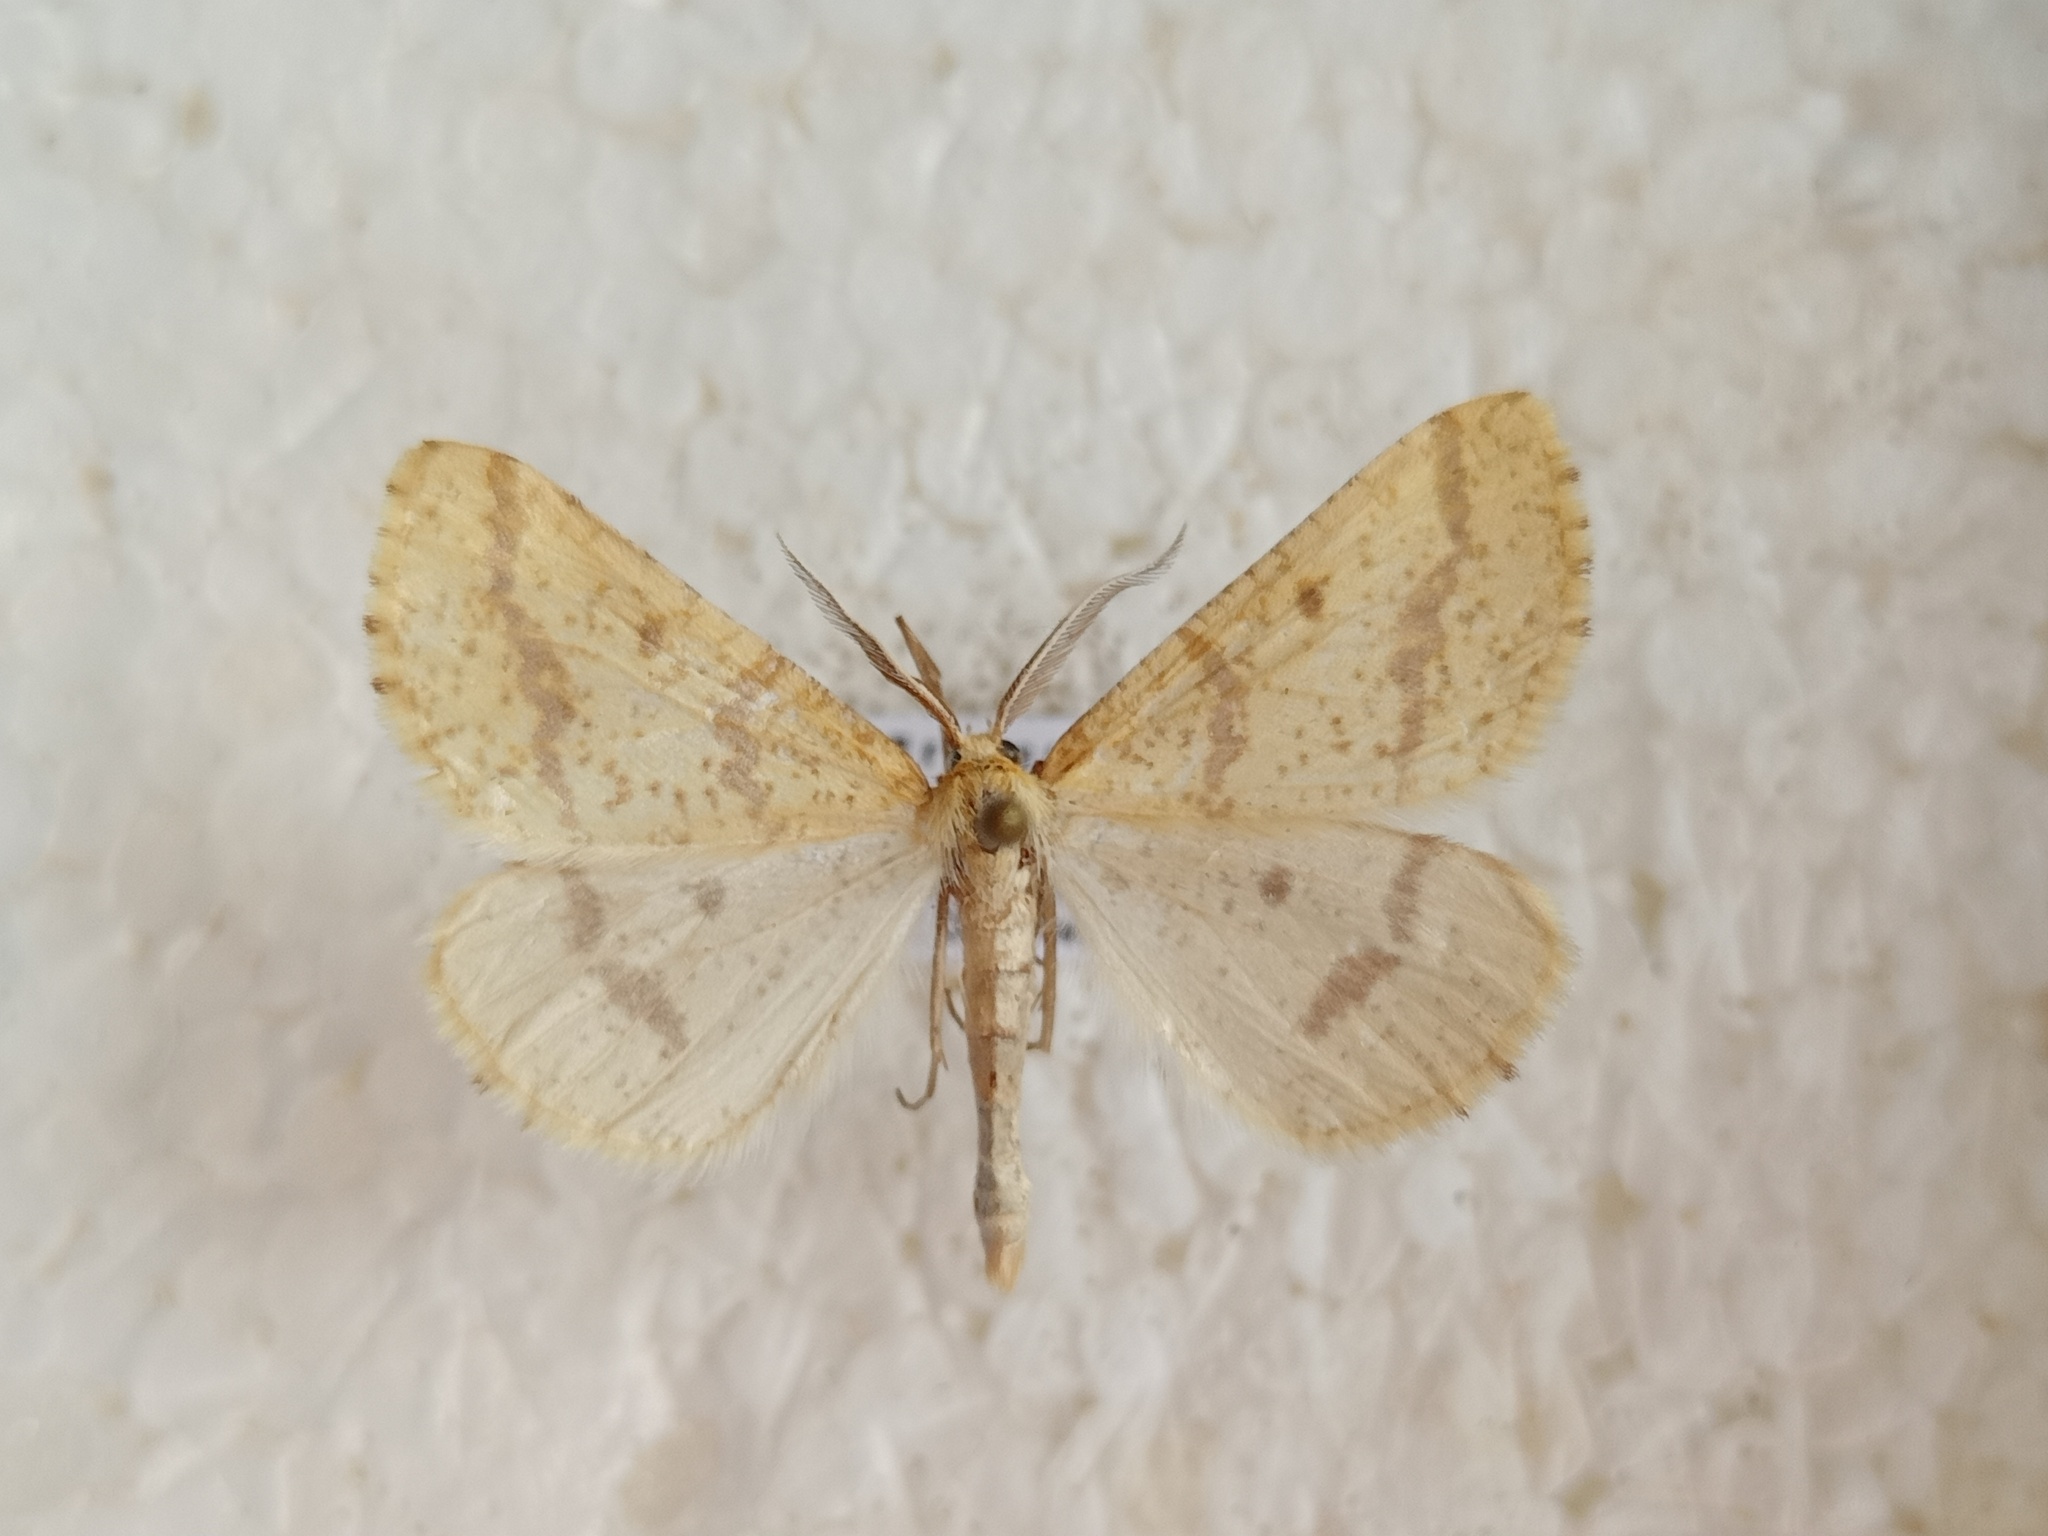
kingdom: Animalia
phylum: Arthropoda
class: Insecta
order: Lepidoptera
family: Geometridae
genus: Aspitates
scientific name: Aspitates ochrearia
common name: Yellow belle
